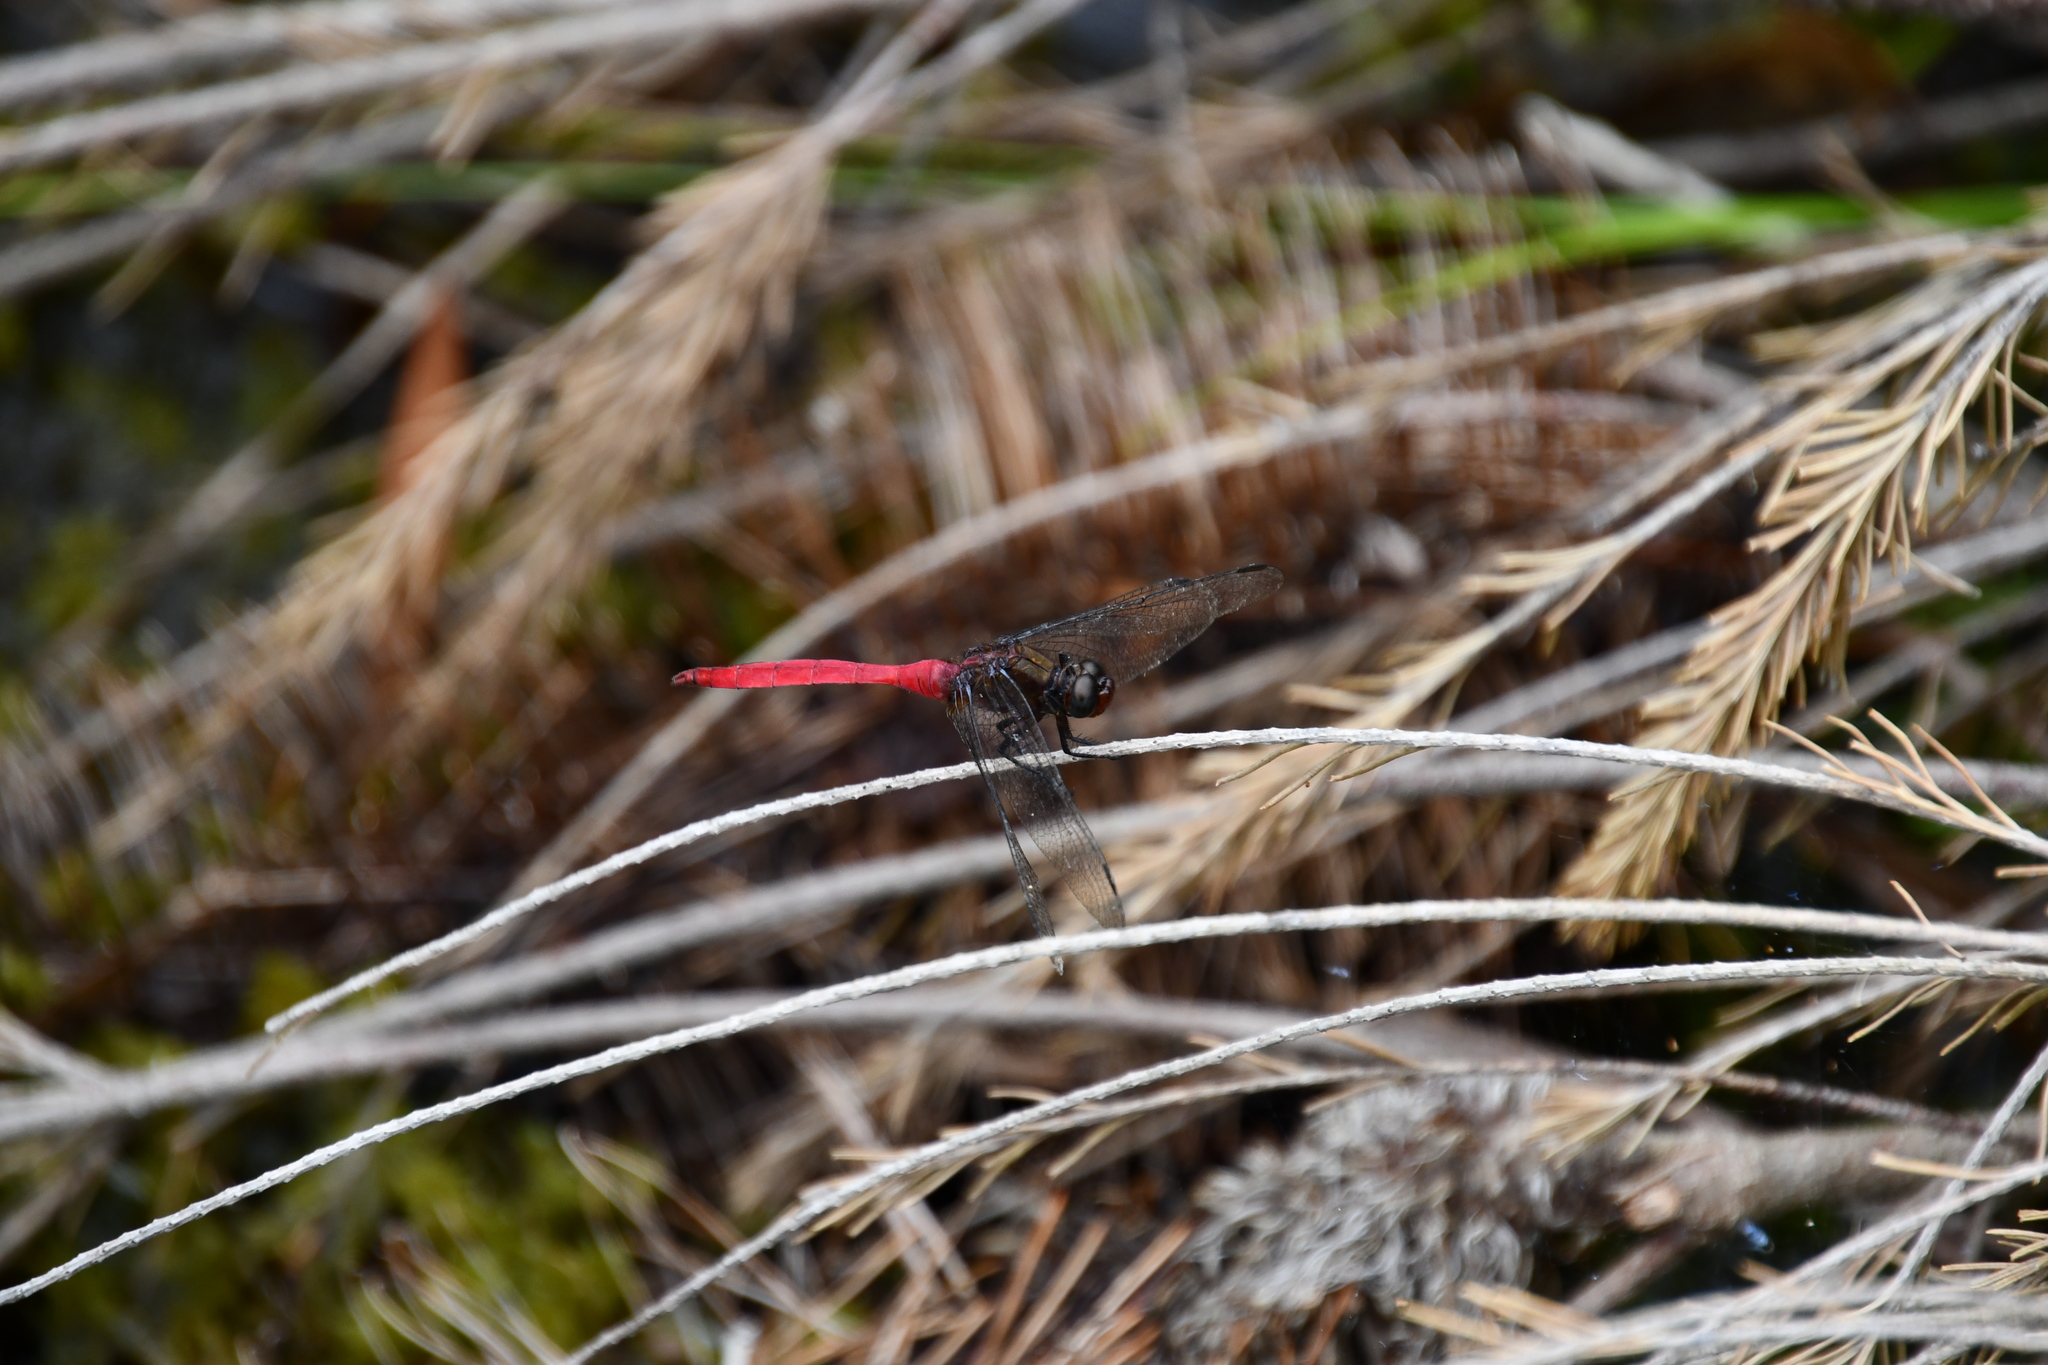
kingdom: Animalia
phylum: Arthropoda
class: Insecta
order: Odonata
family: Libellulidae
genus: Orthetrum
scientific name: Orthetrum villosovittatum
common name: Firery skimmer
